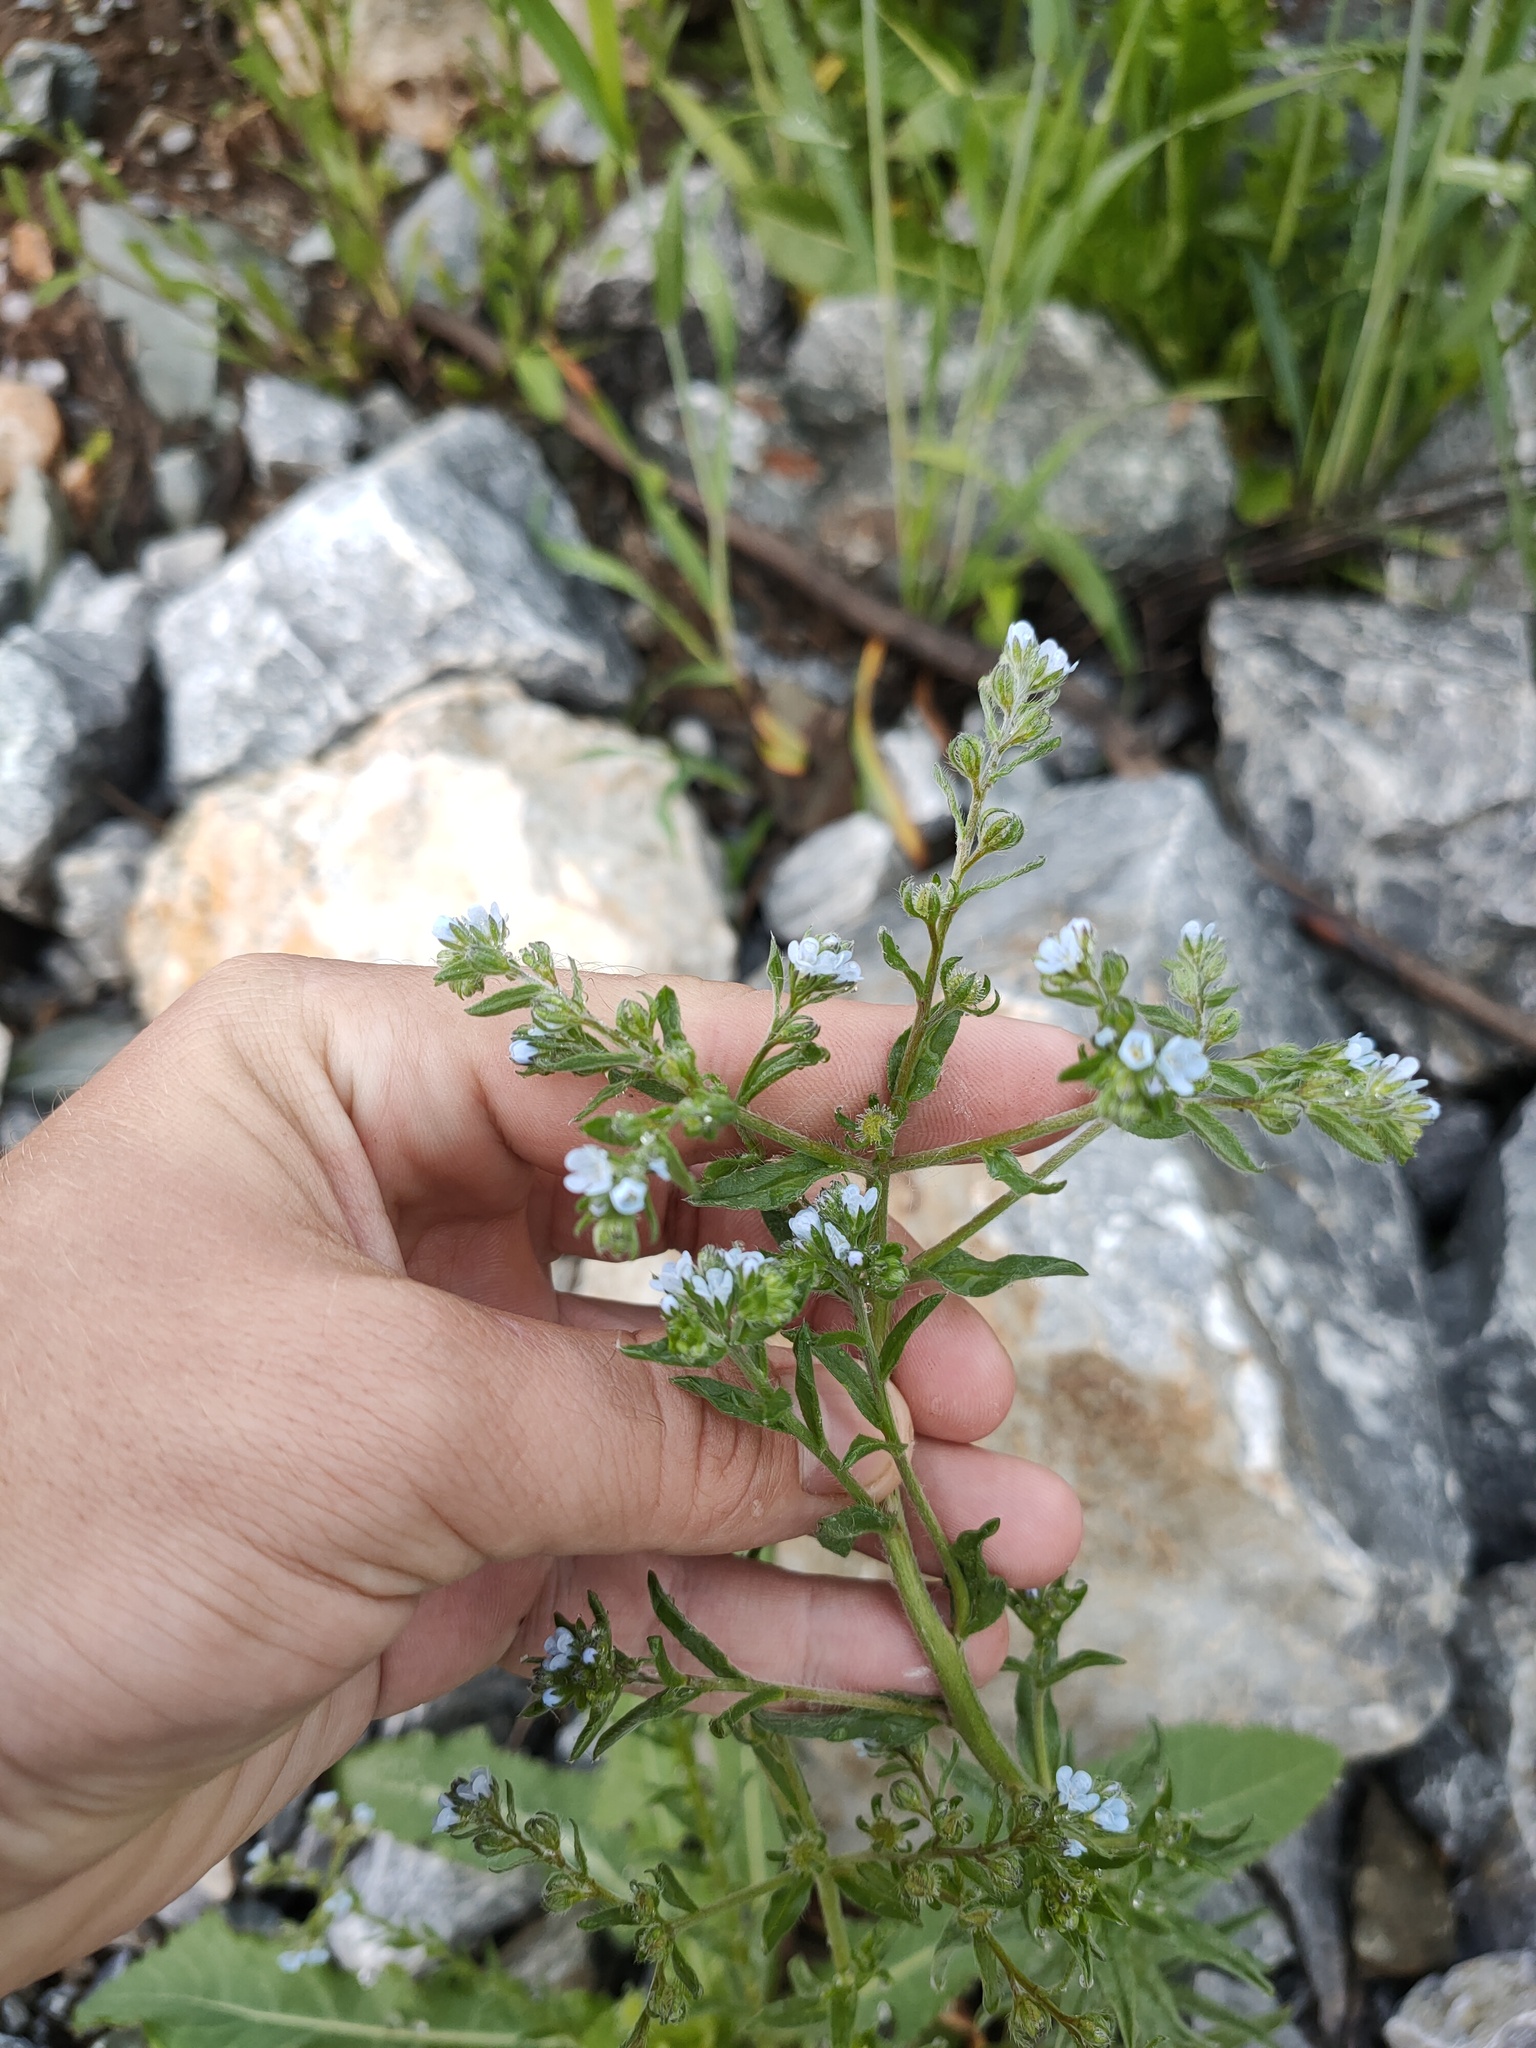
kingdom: Plantae
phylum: Tracheophyta
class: Magnoliopsida
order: Boraginales
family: Boraginaceae
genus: Lappula
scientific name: Lappula squarrosa
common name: European stickseed
